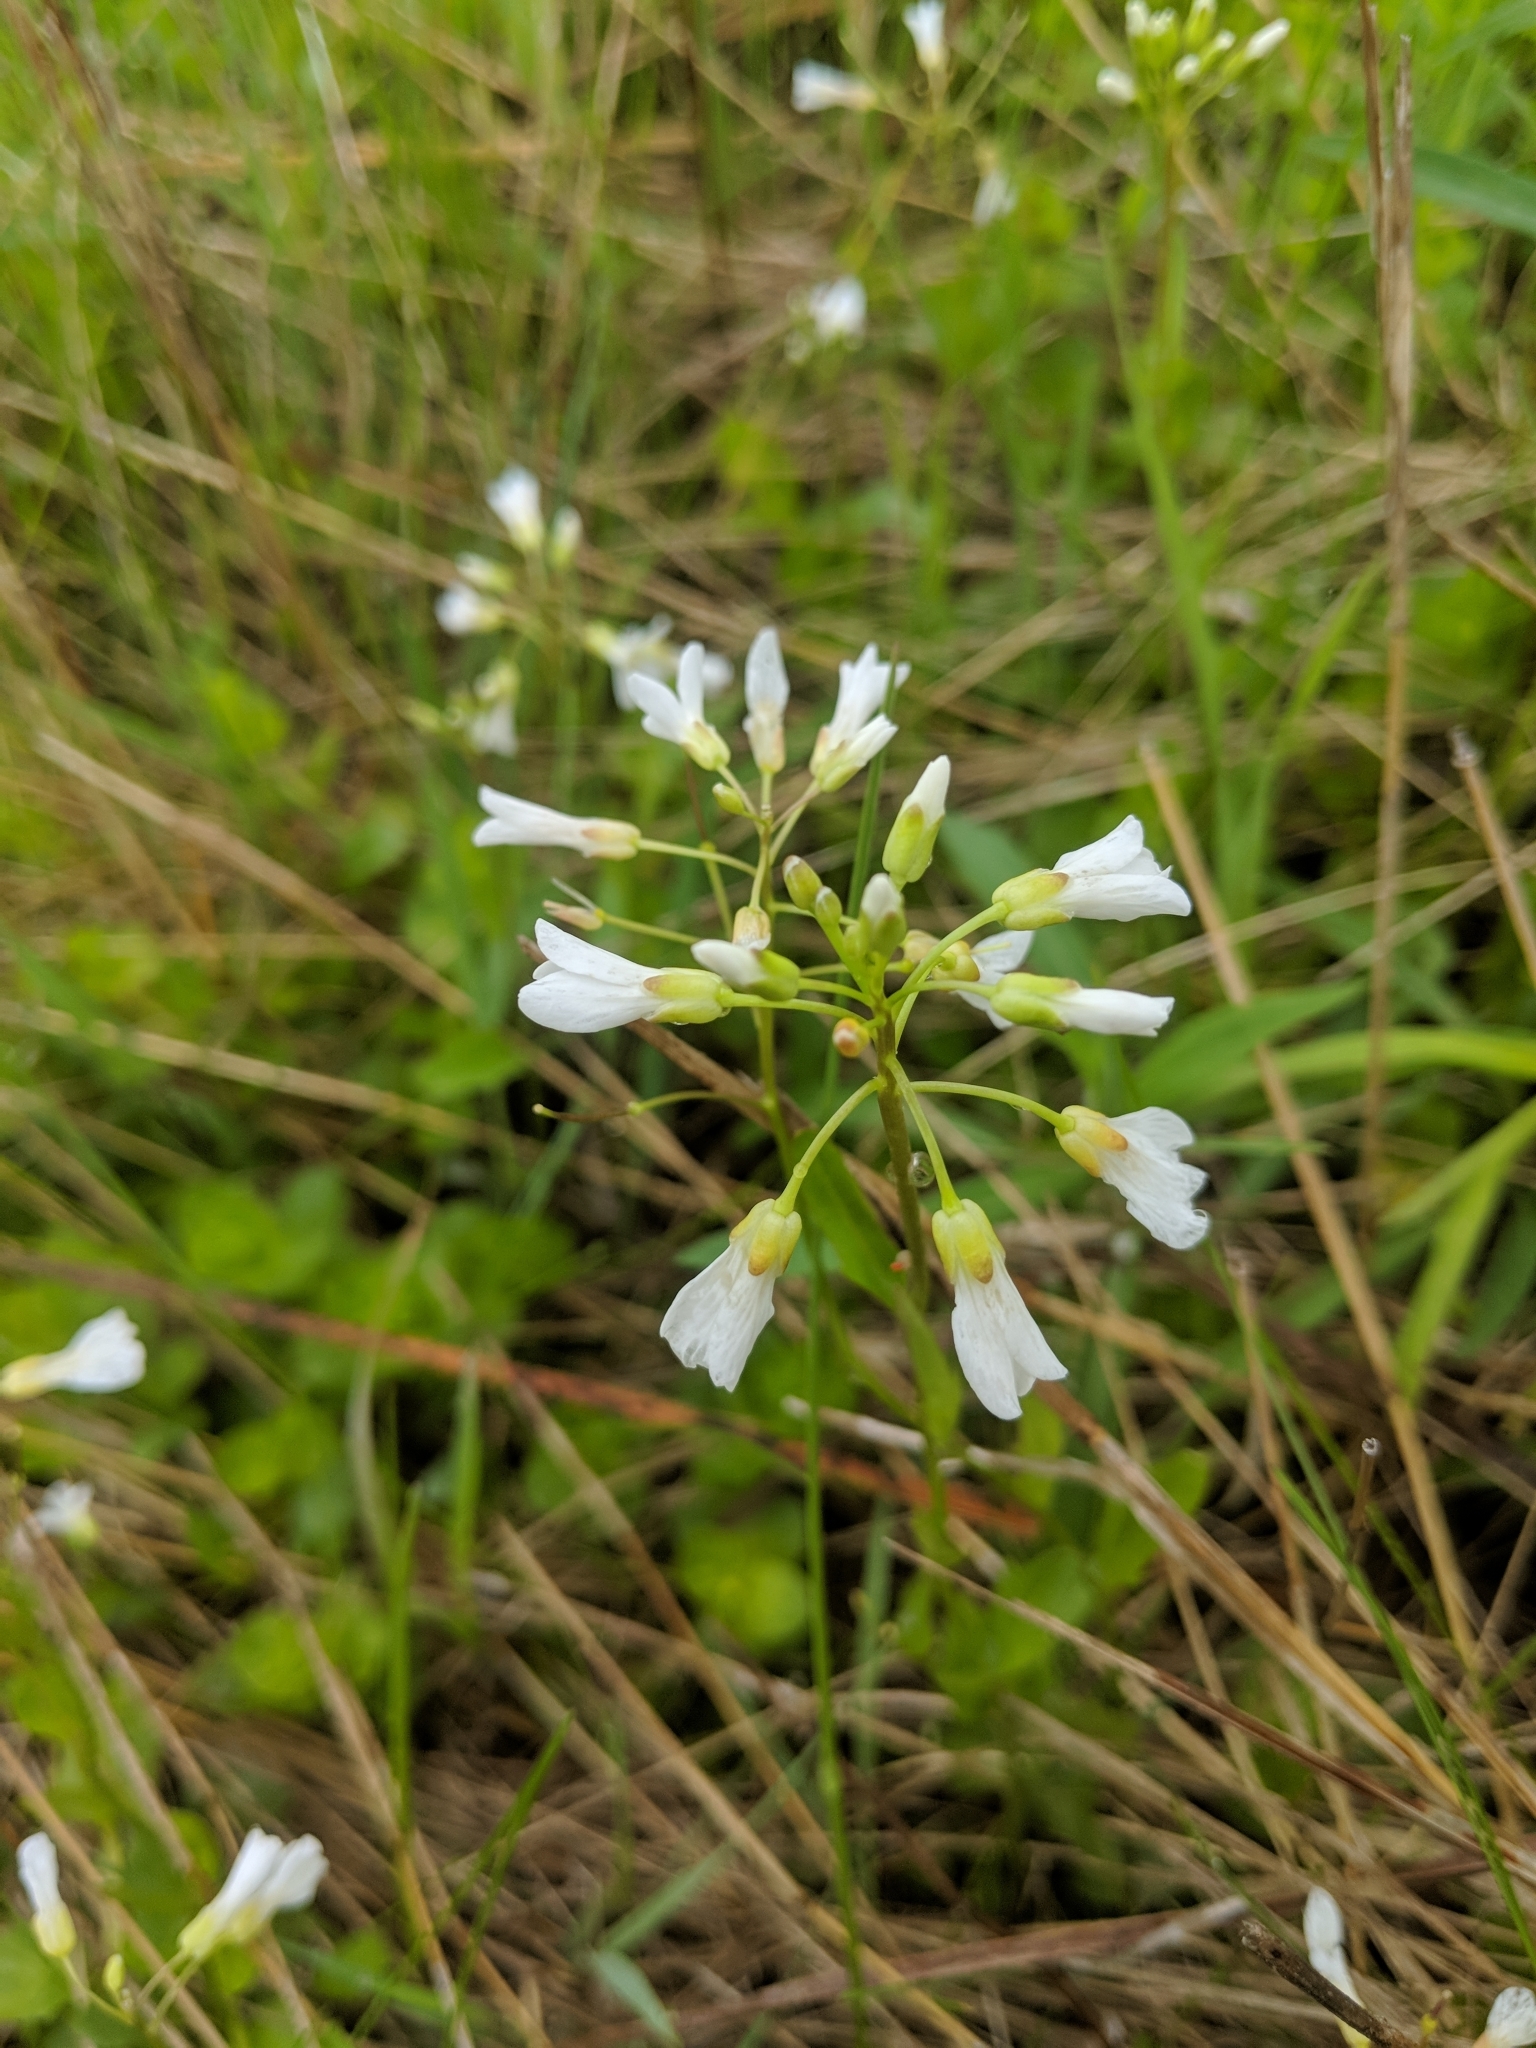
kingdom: Plantae
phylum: Tracheophyta
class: Magnoliopsida
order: Brassicales
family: Brassicaceae
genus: Cardamine
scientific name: Cardamine bulbosa
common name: Spring cress
